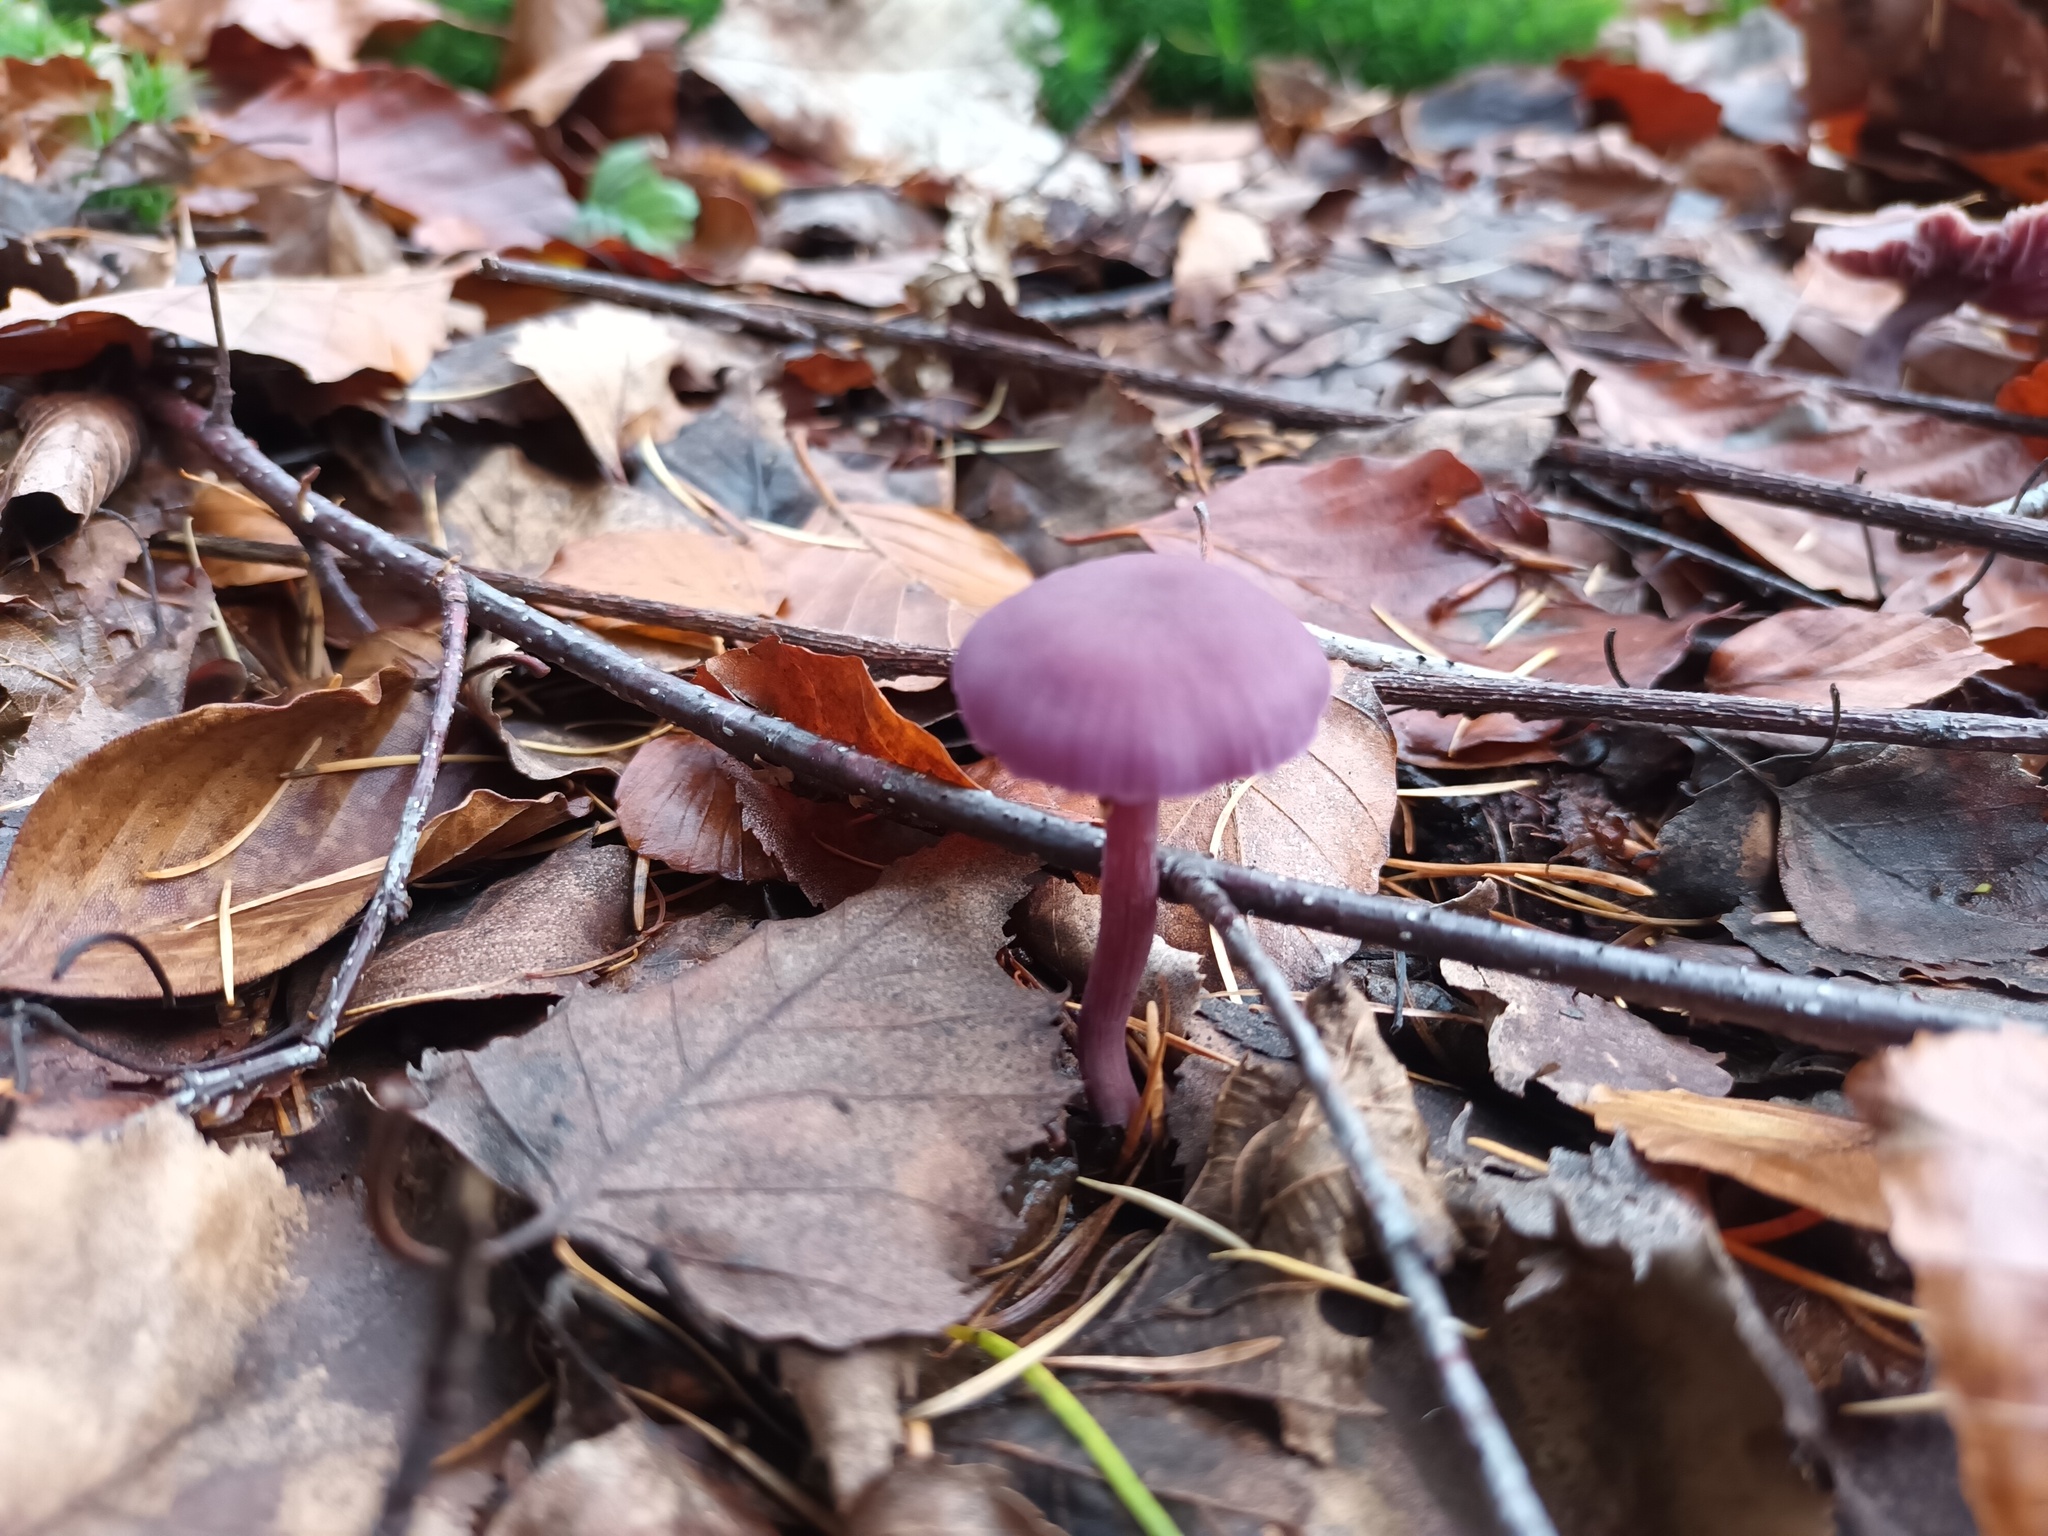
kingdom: Fungi
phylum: Basidiomycota
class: Agaricomycetes
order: Agaricales
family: Hydnangiaceae
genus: Laccaria
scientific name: Laccaria amethystina
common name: Amethyst deceiver
